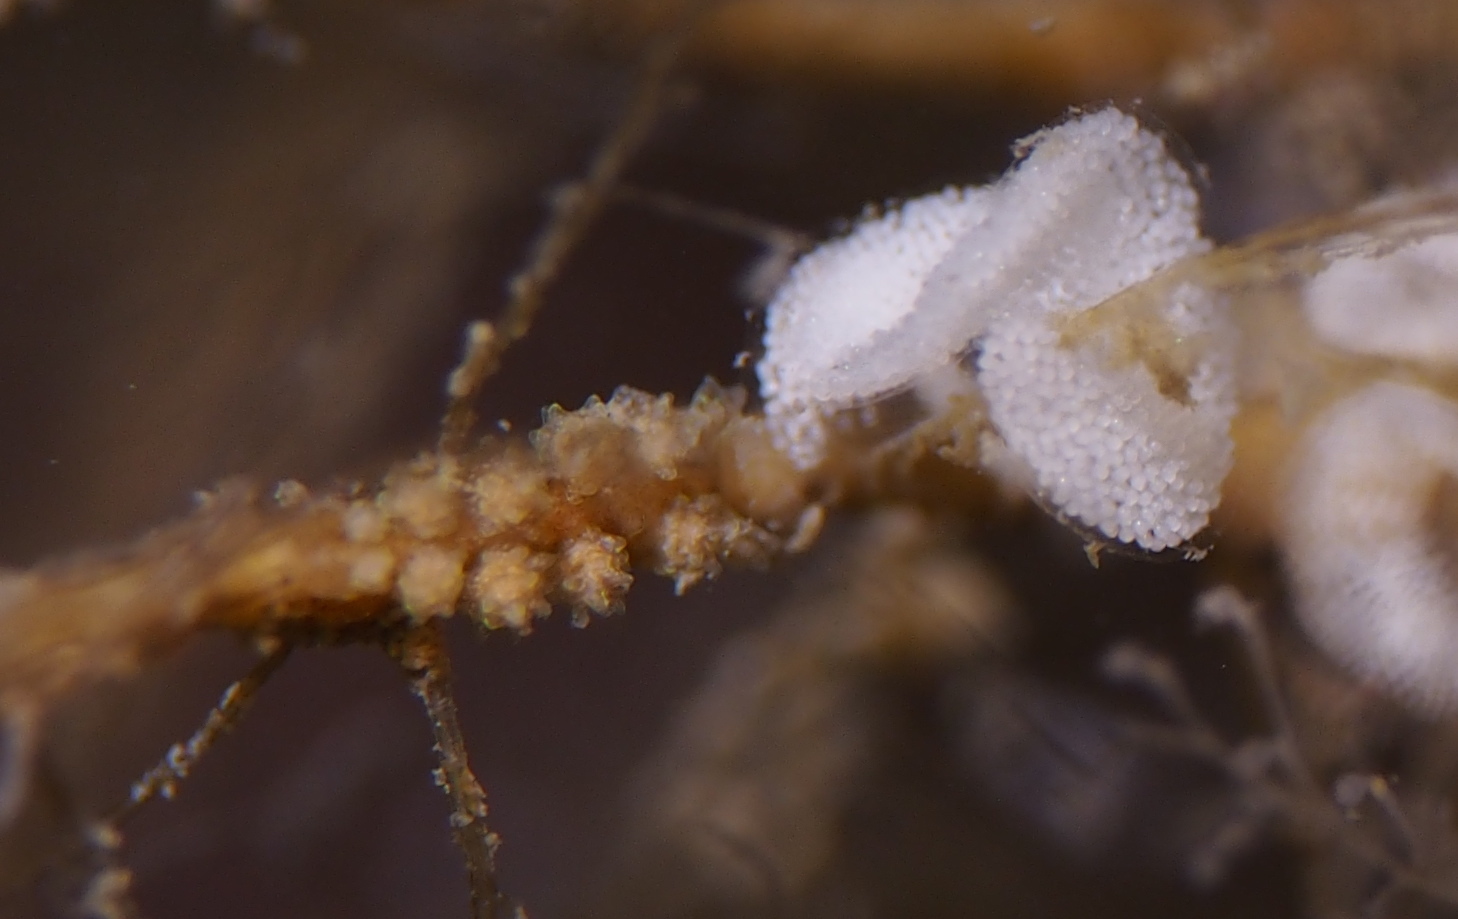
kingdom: Animalia
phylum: Mollusca
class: Gastropoda
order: Nudibranchia
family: Dotidae
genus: Doto
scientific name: Doto hystrix
